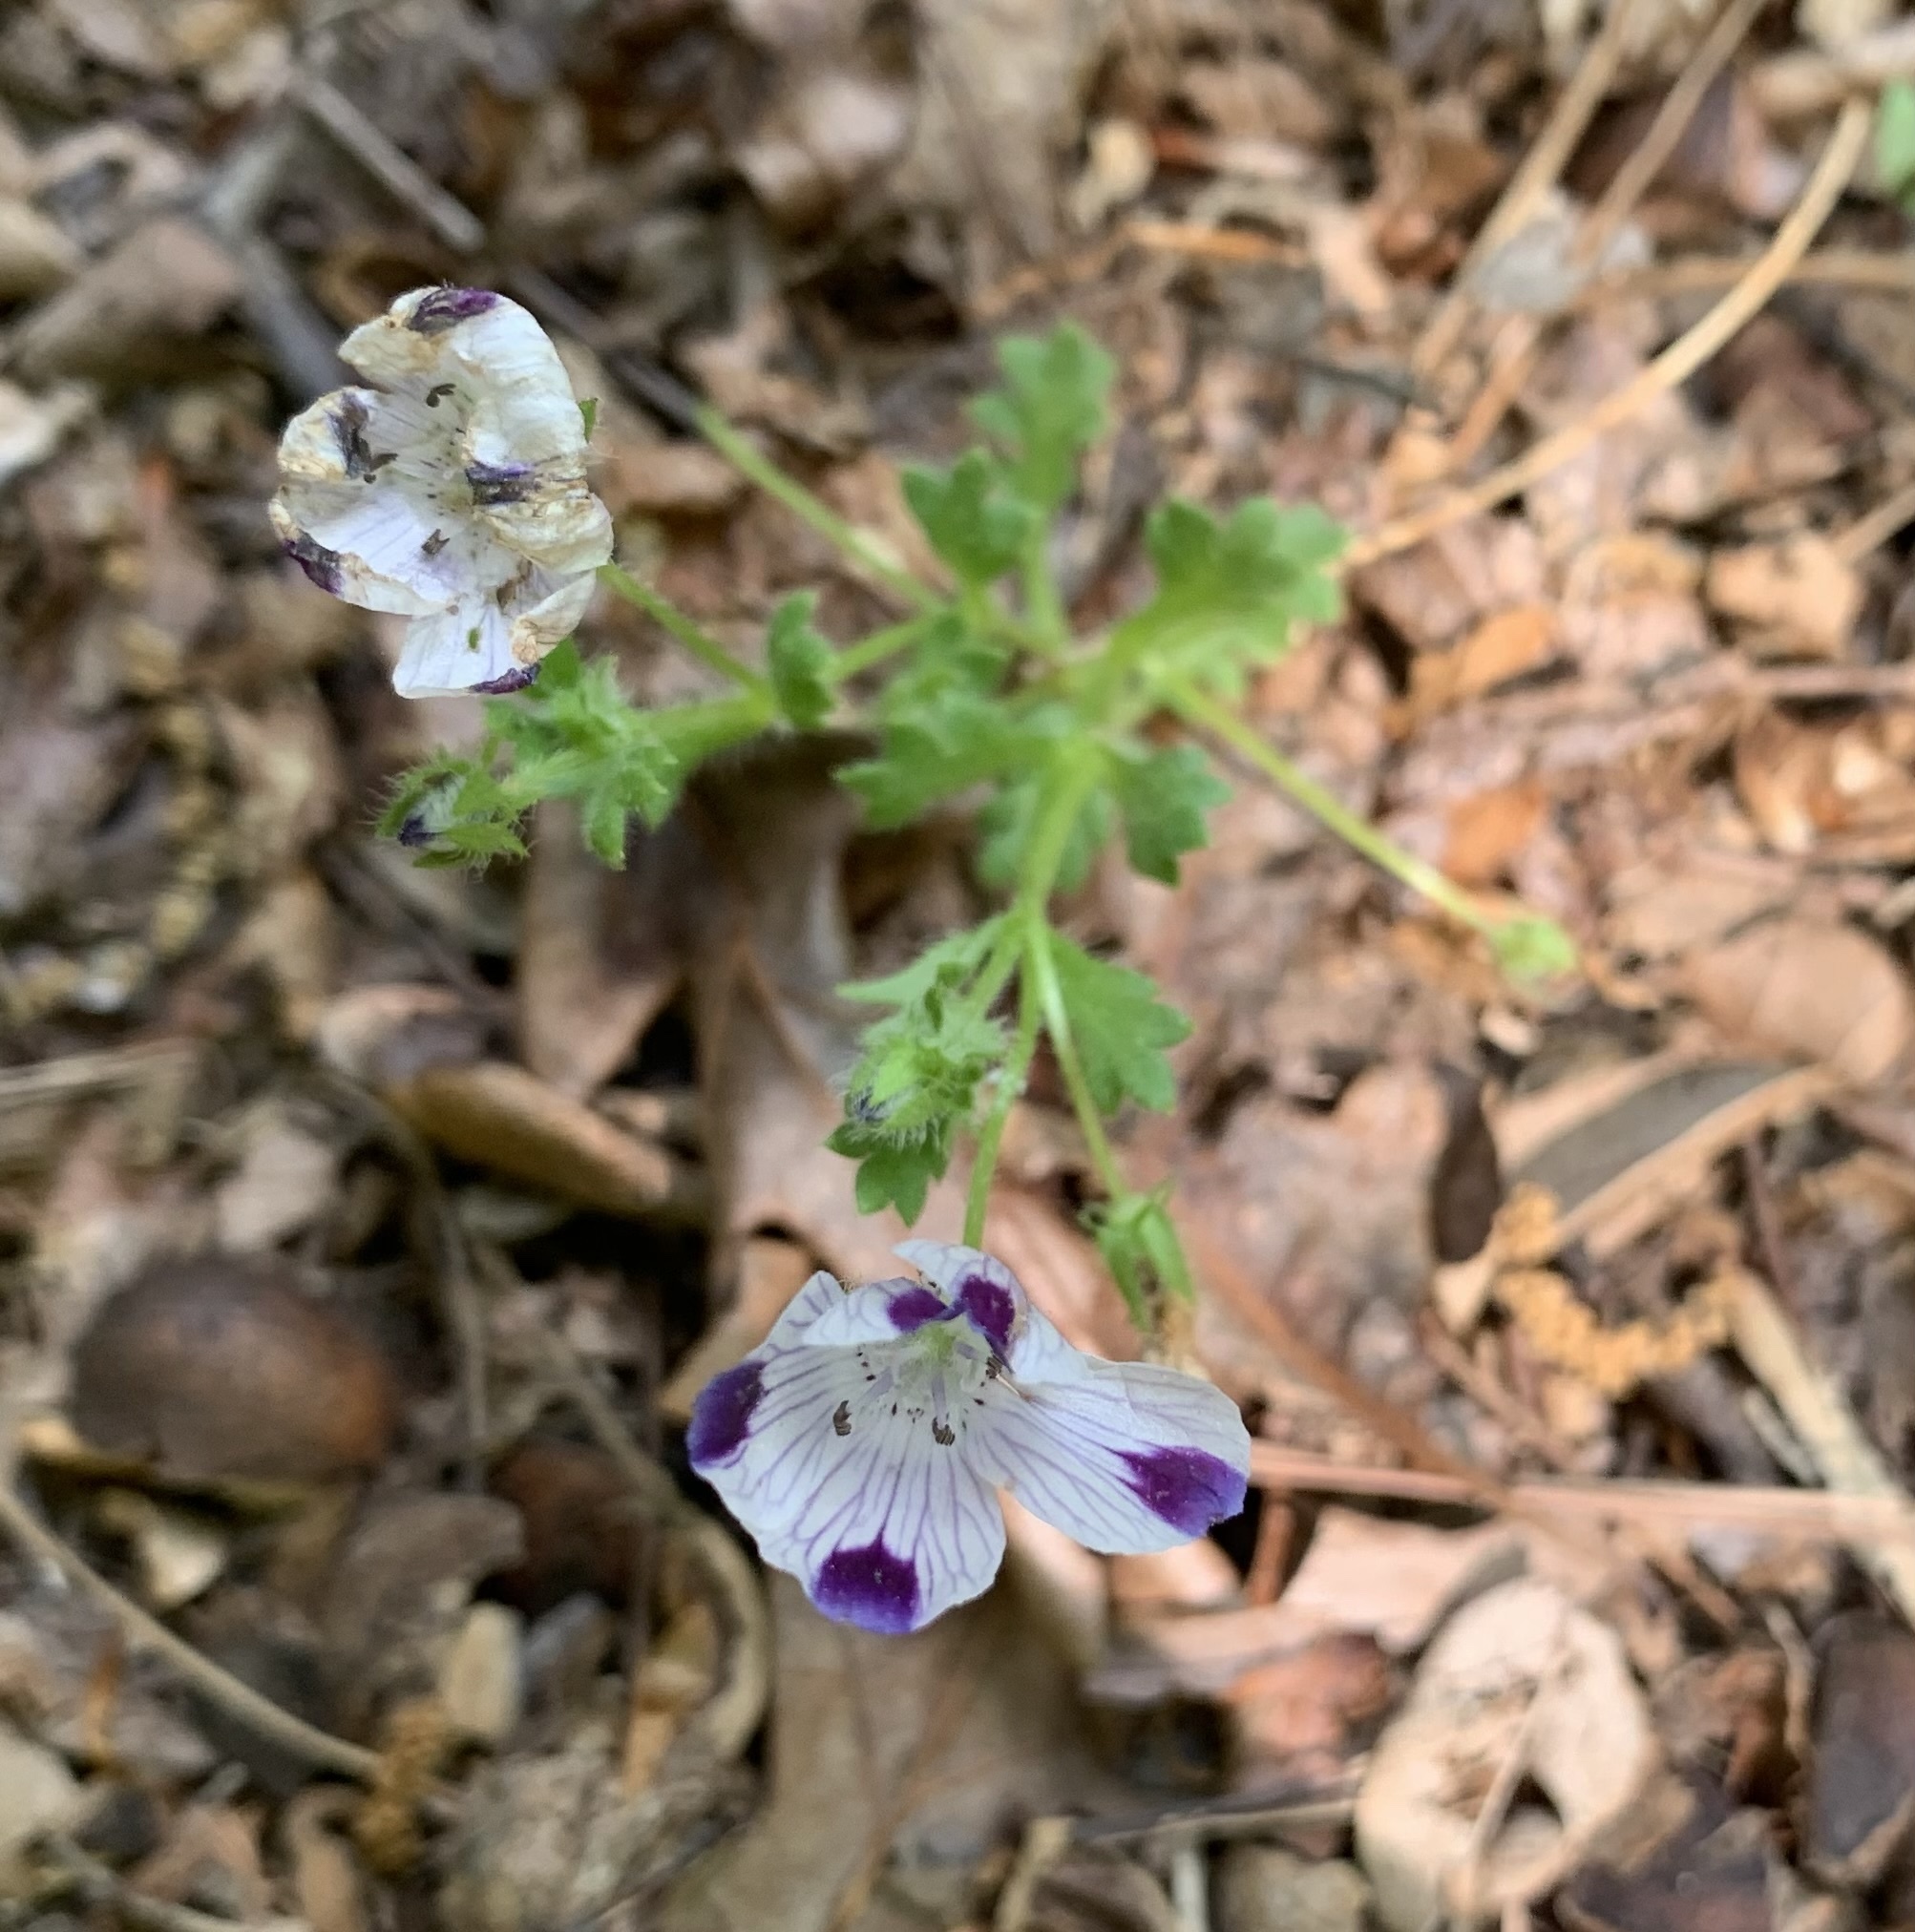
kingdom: Plantae
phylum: Tracheophyta
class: Magnoliopsida
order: Boraginales
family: Hydrophyllaceae
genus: Nemophila
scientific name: Nemophila maculata
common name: Fivespot
